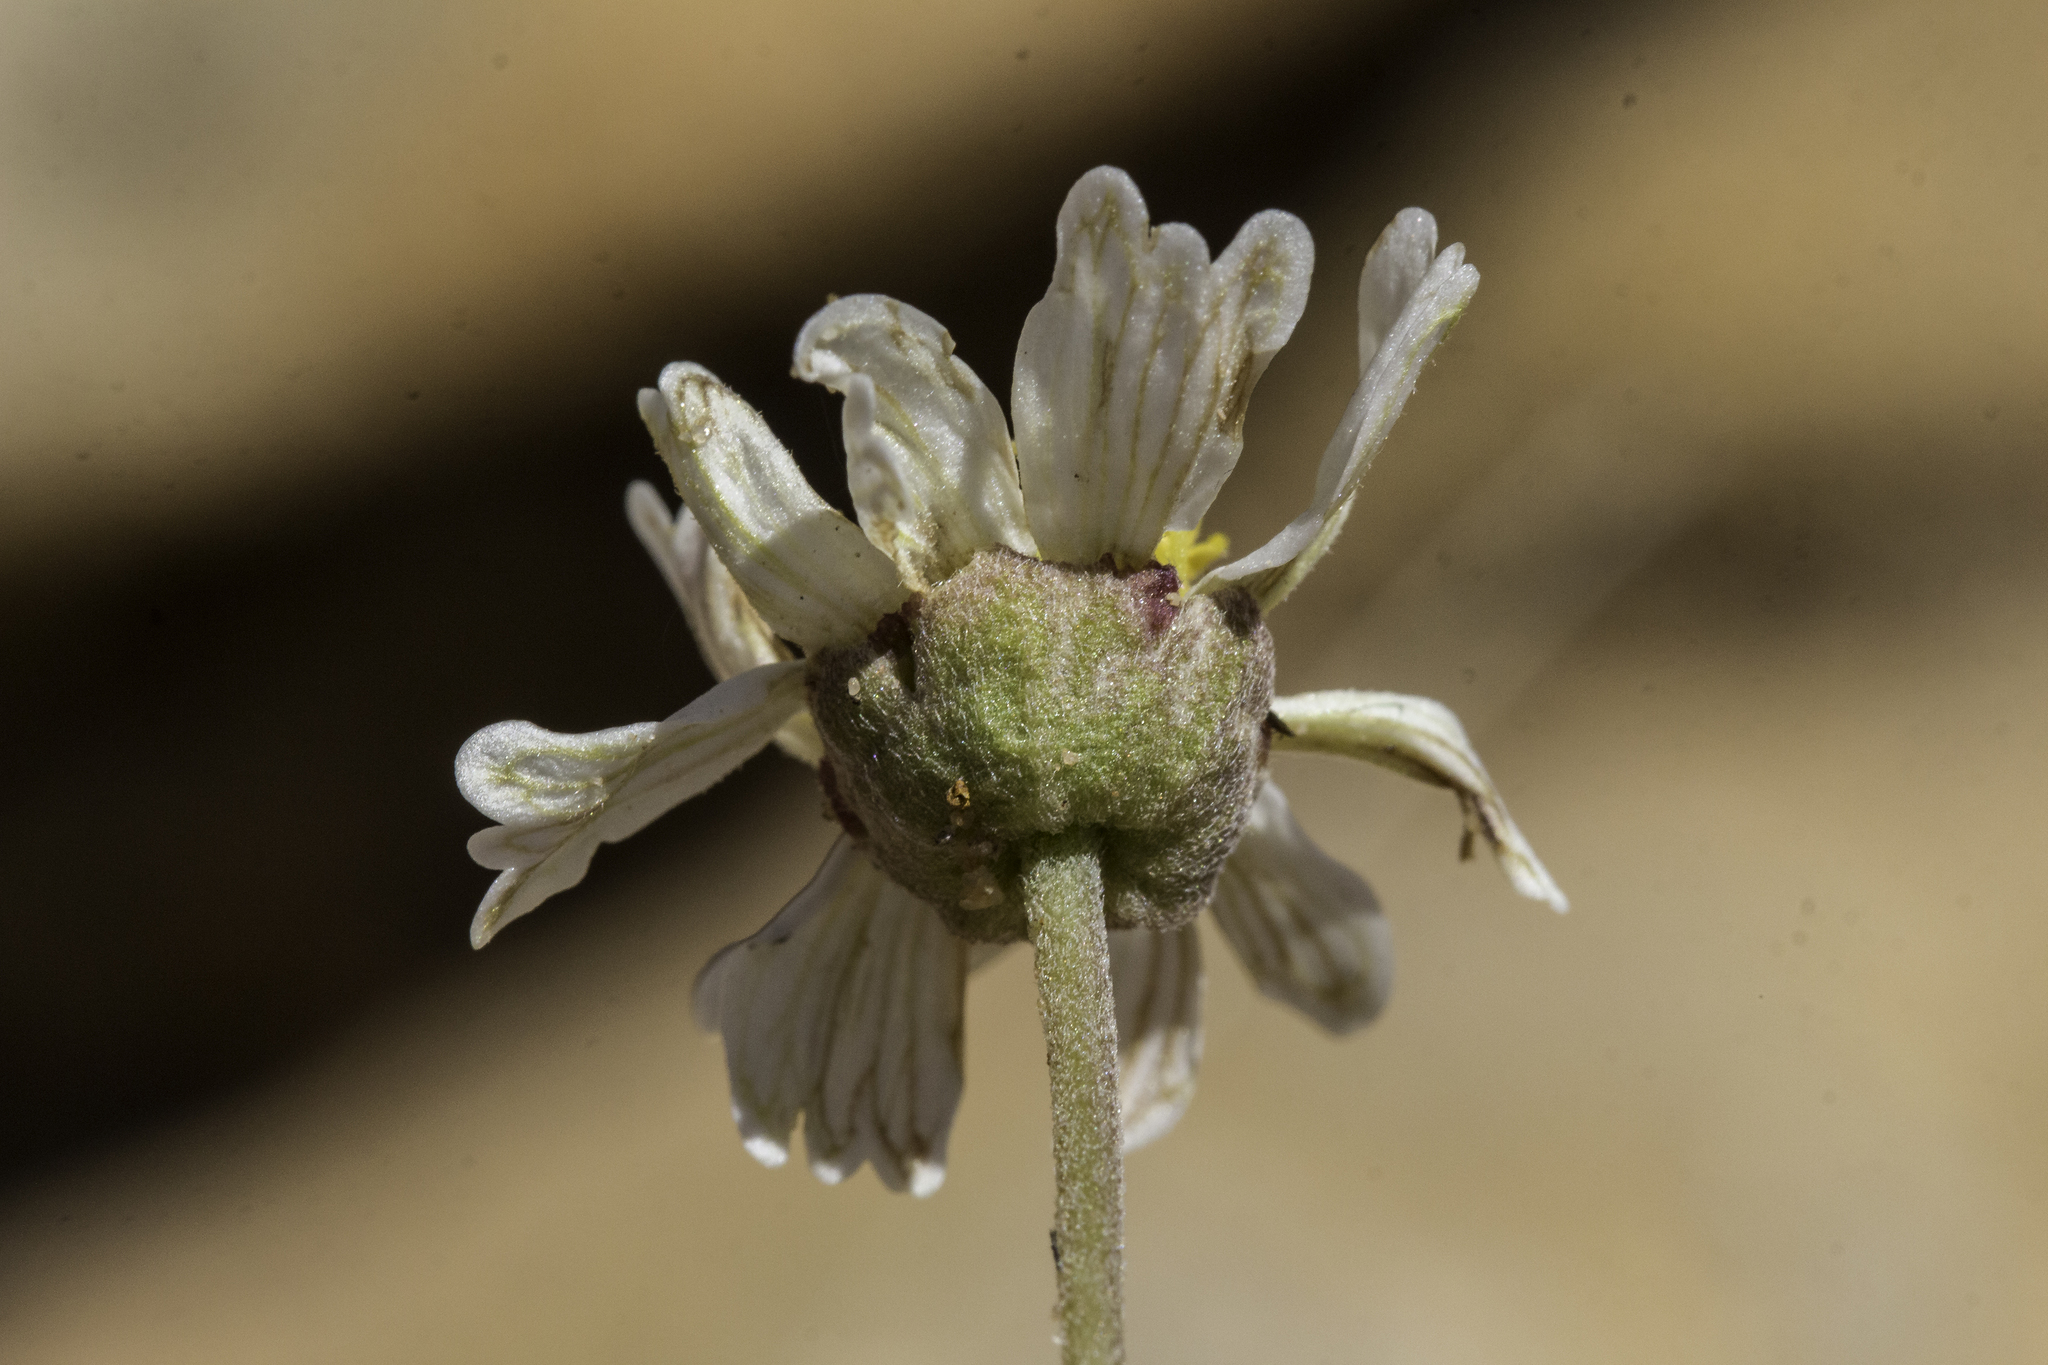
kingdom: Plantae
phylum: Tracheophyta
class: Magnoliopsida
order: Asterales
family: Asteraceae
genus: Melampodium
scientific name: Melampodium leucanthum
